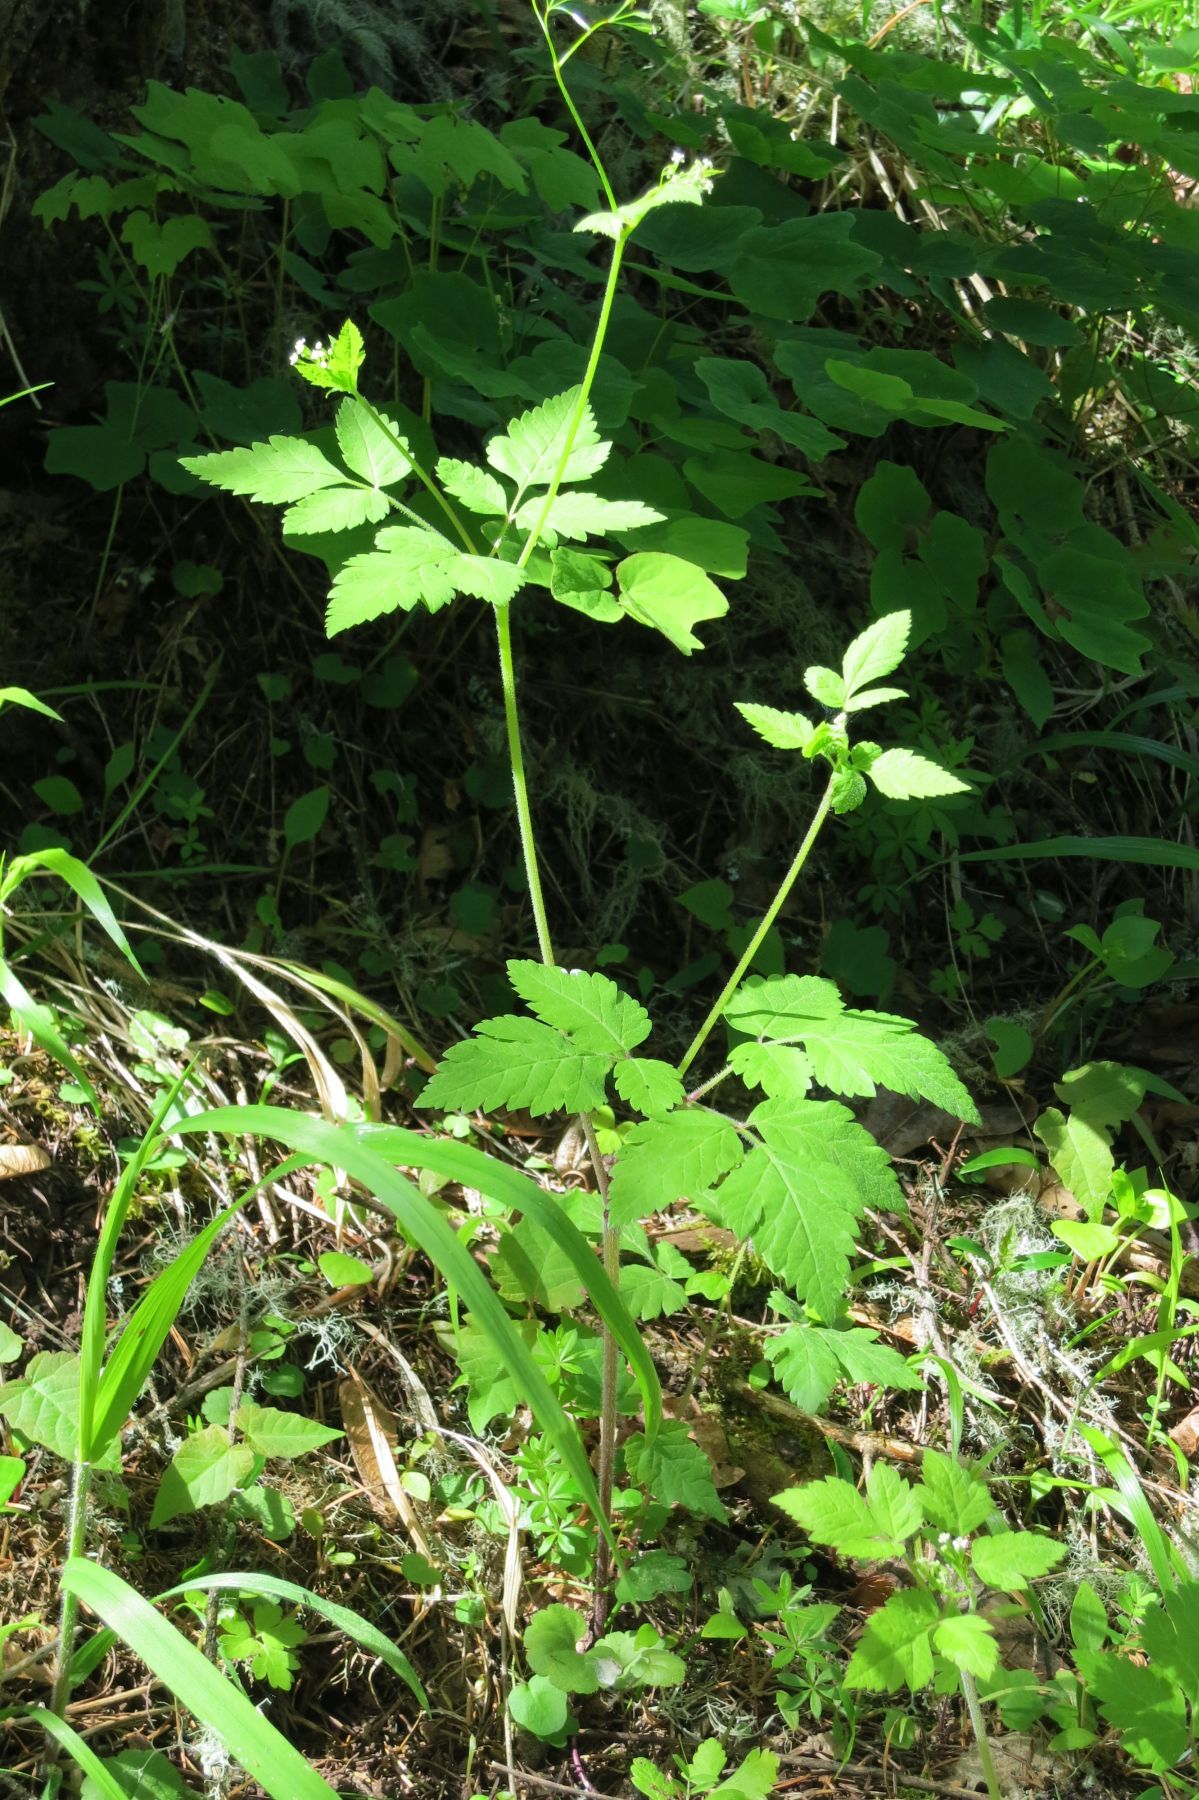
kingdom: Plantae
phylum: Tracheophyta
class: Magnoliopsida
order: Apiales
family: Apiaceae
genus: Osmorhiza
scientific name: Osmorhiza berteroi
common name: Mountain sweet cicely
